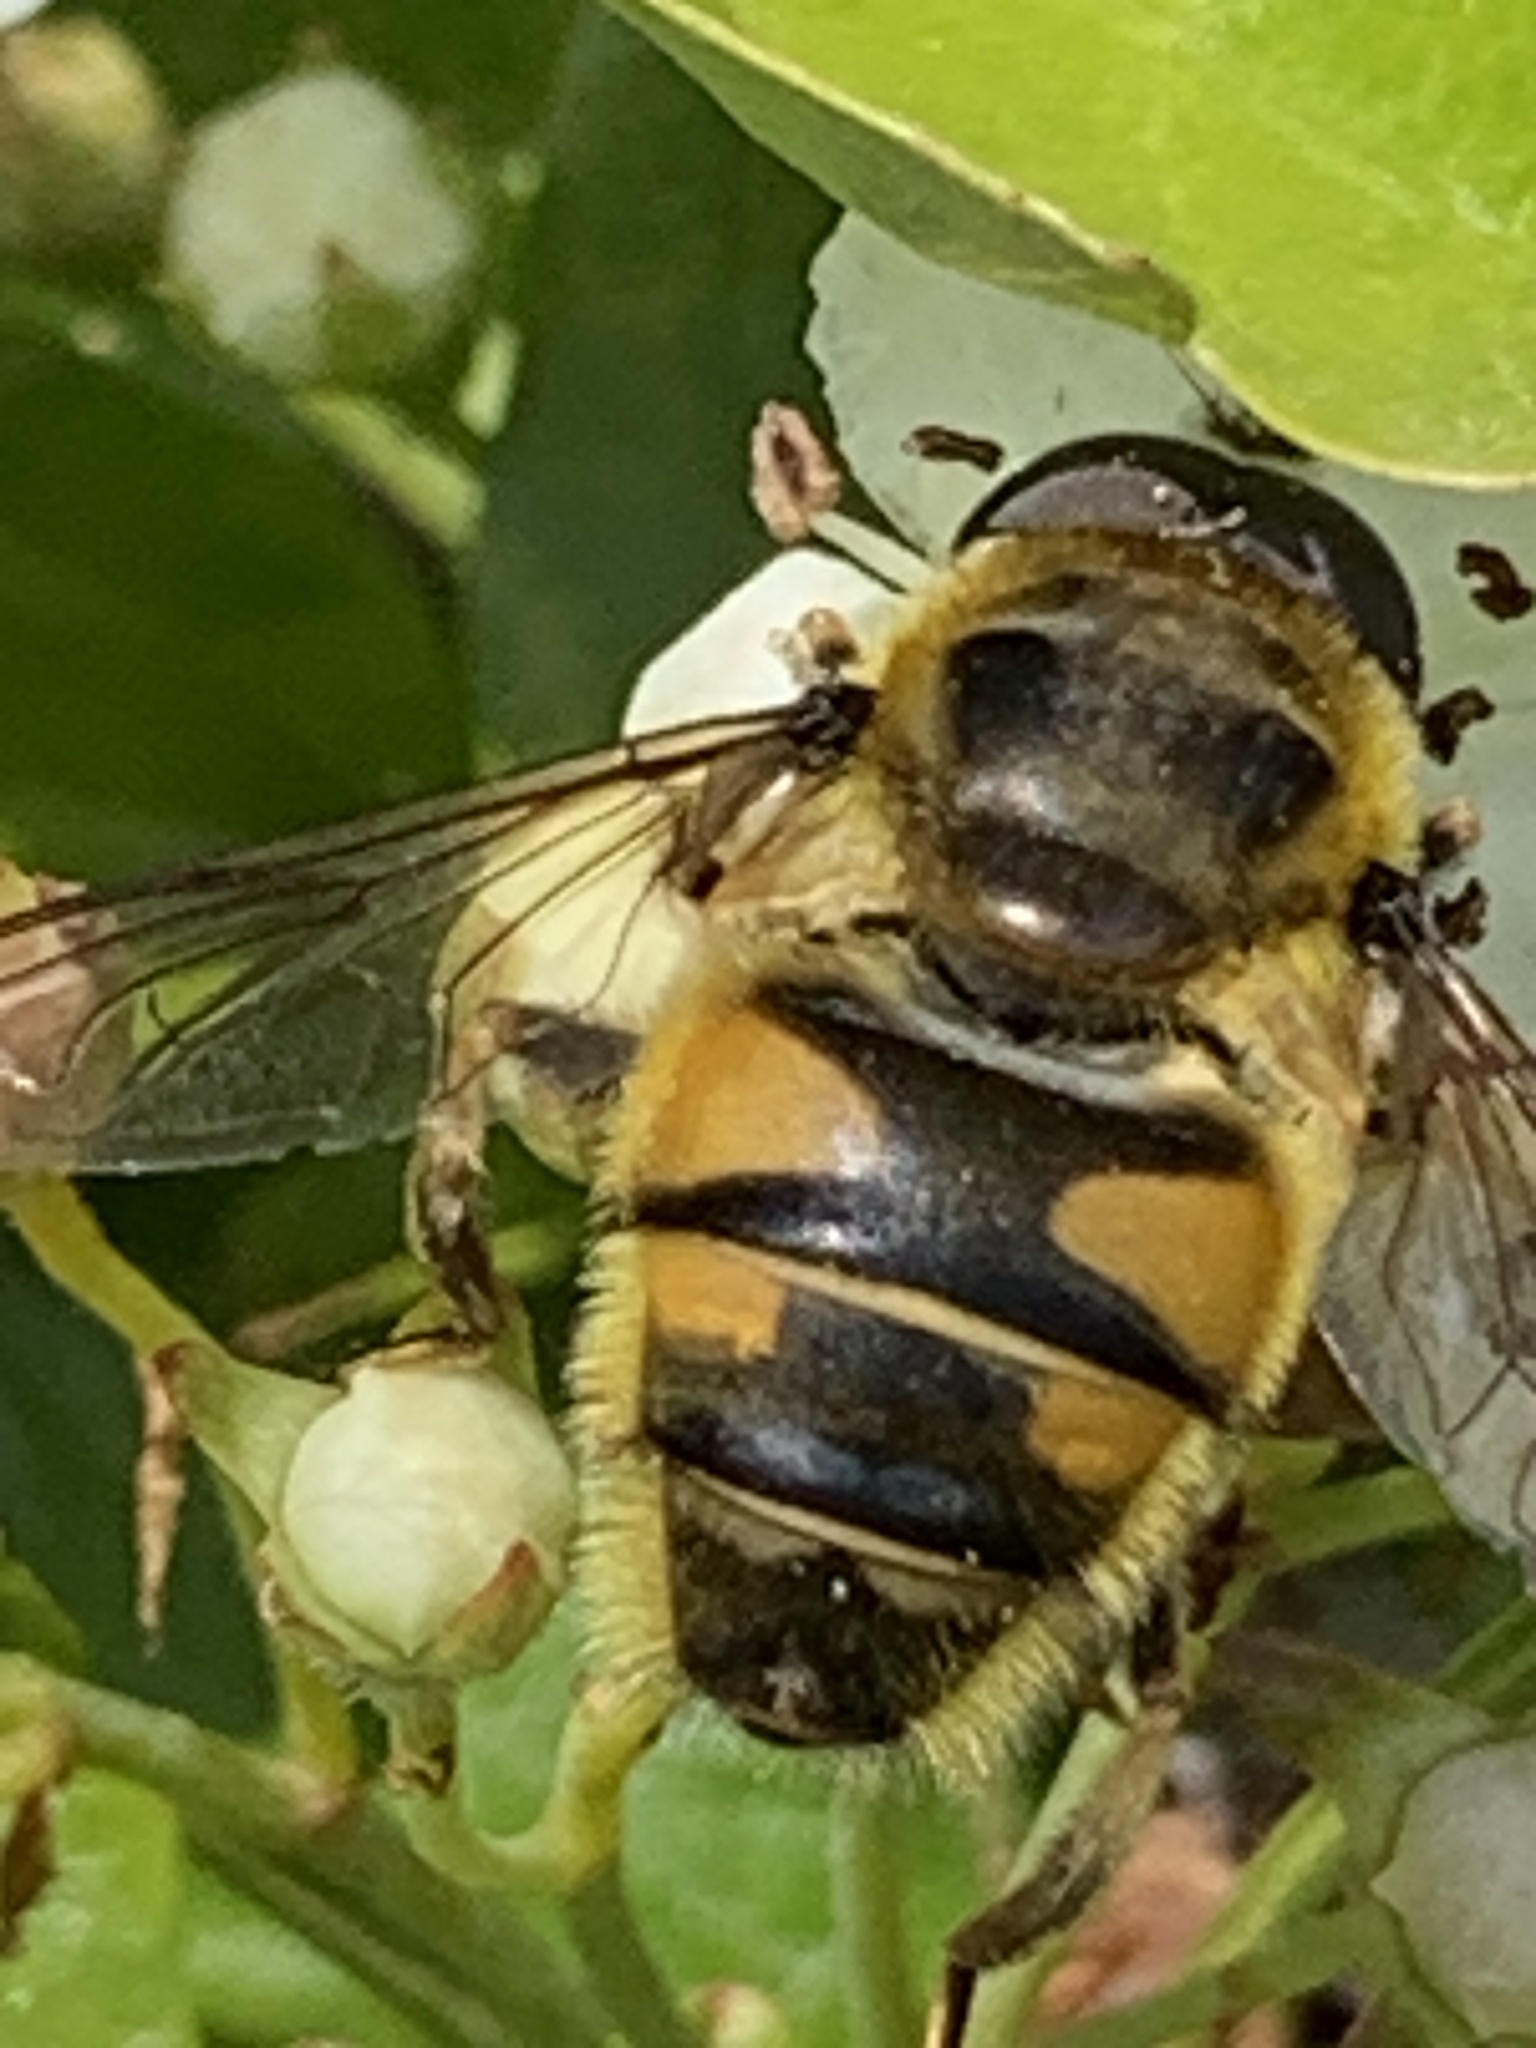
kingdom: Animalia
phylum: Arthropoda
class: Insecta
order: Diptera
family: Syrphidae
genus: Myathropa
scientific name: Myathropa florea
